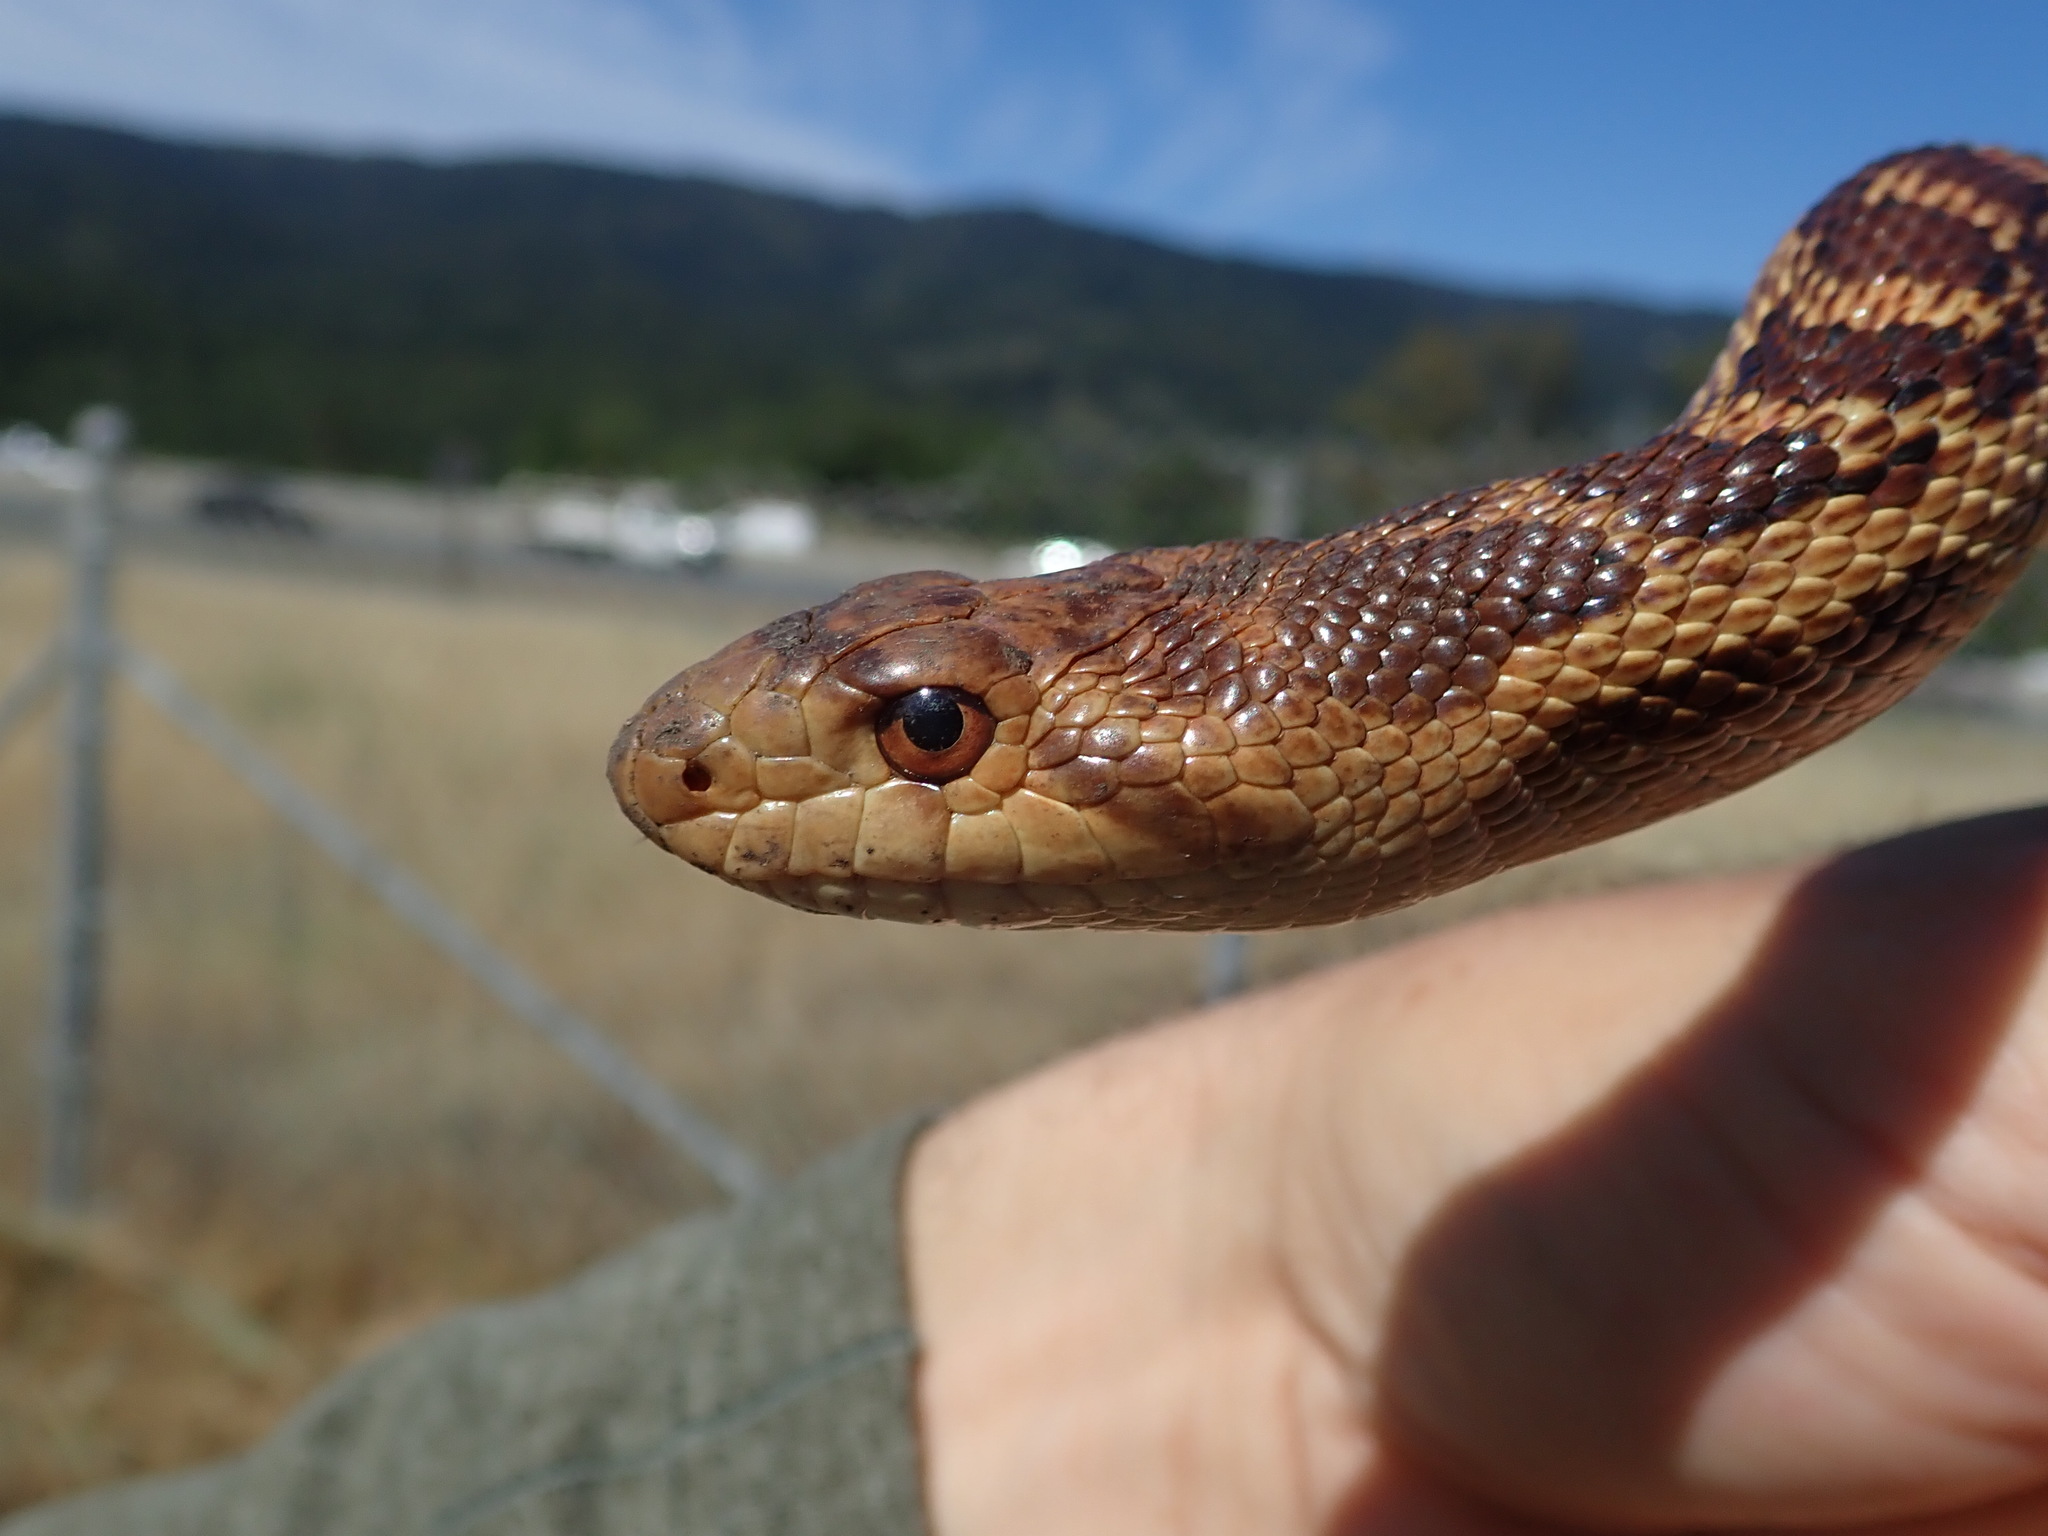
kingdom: Animalia
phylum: Chordata
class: Squamata
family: Colubridae
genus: Pituophis
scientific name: Pituophis catenifer
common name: Gopher snake
